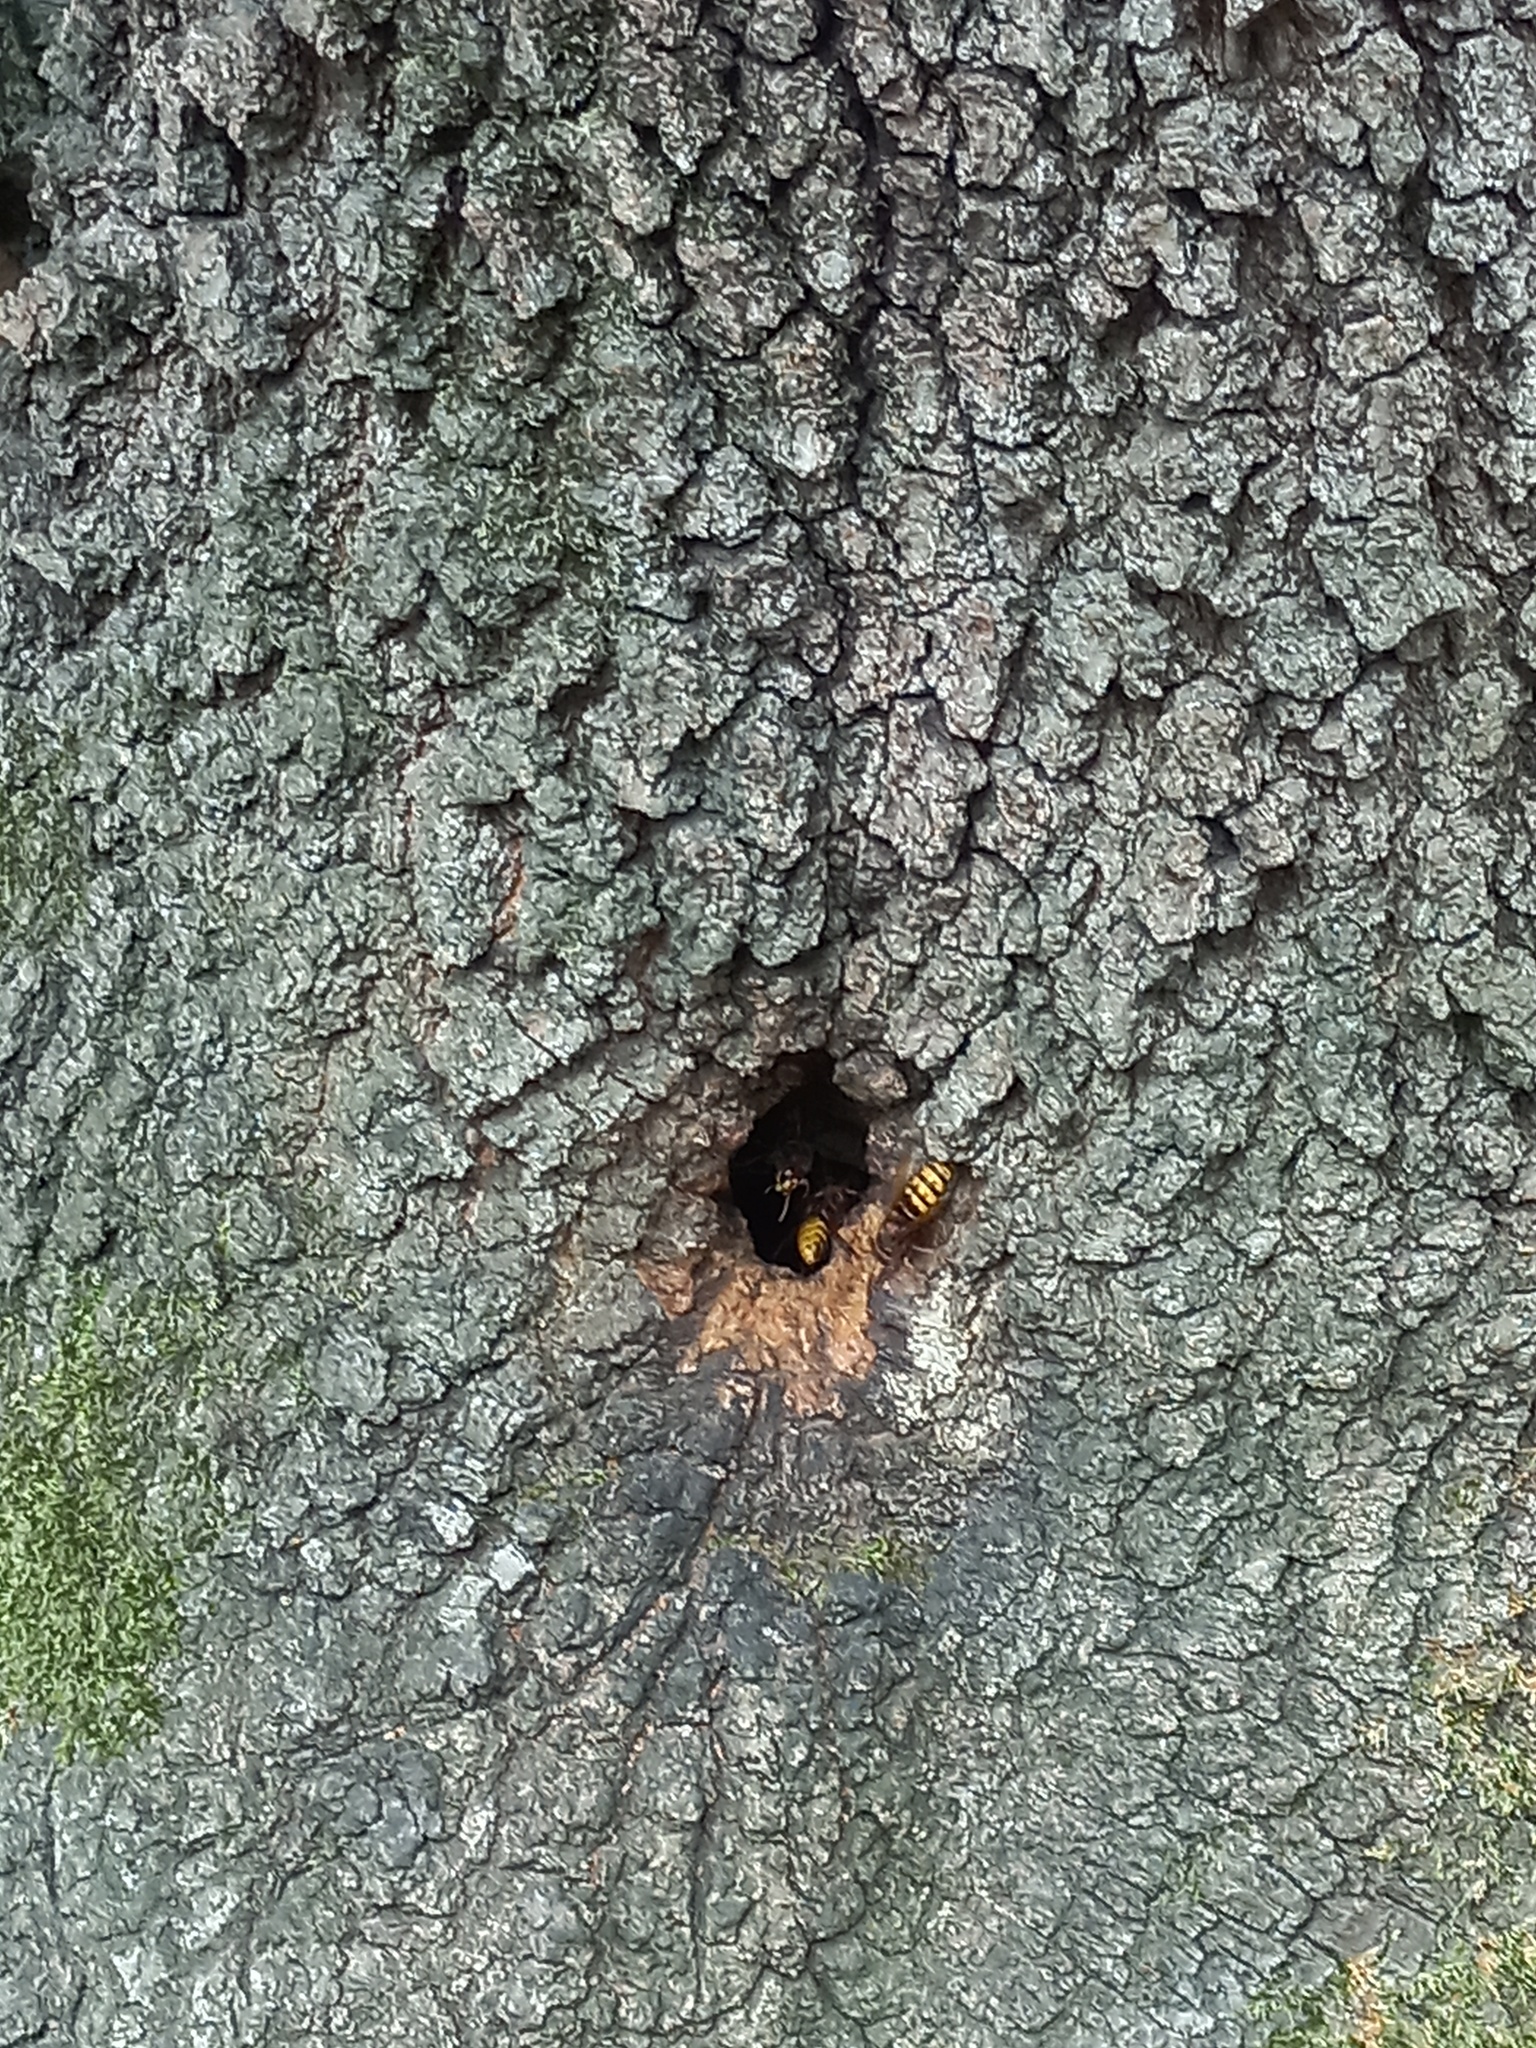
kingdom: Animalia
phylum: Arthropoda
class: Insecta
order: Hymenoptera
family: Vespidae
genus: Vespa
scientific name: Vespa crabro
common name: Hornet
